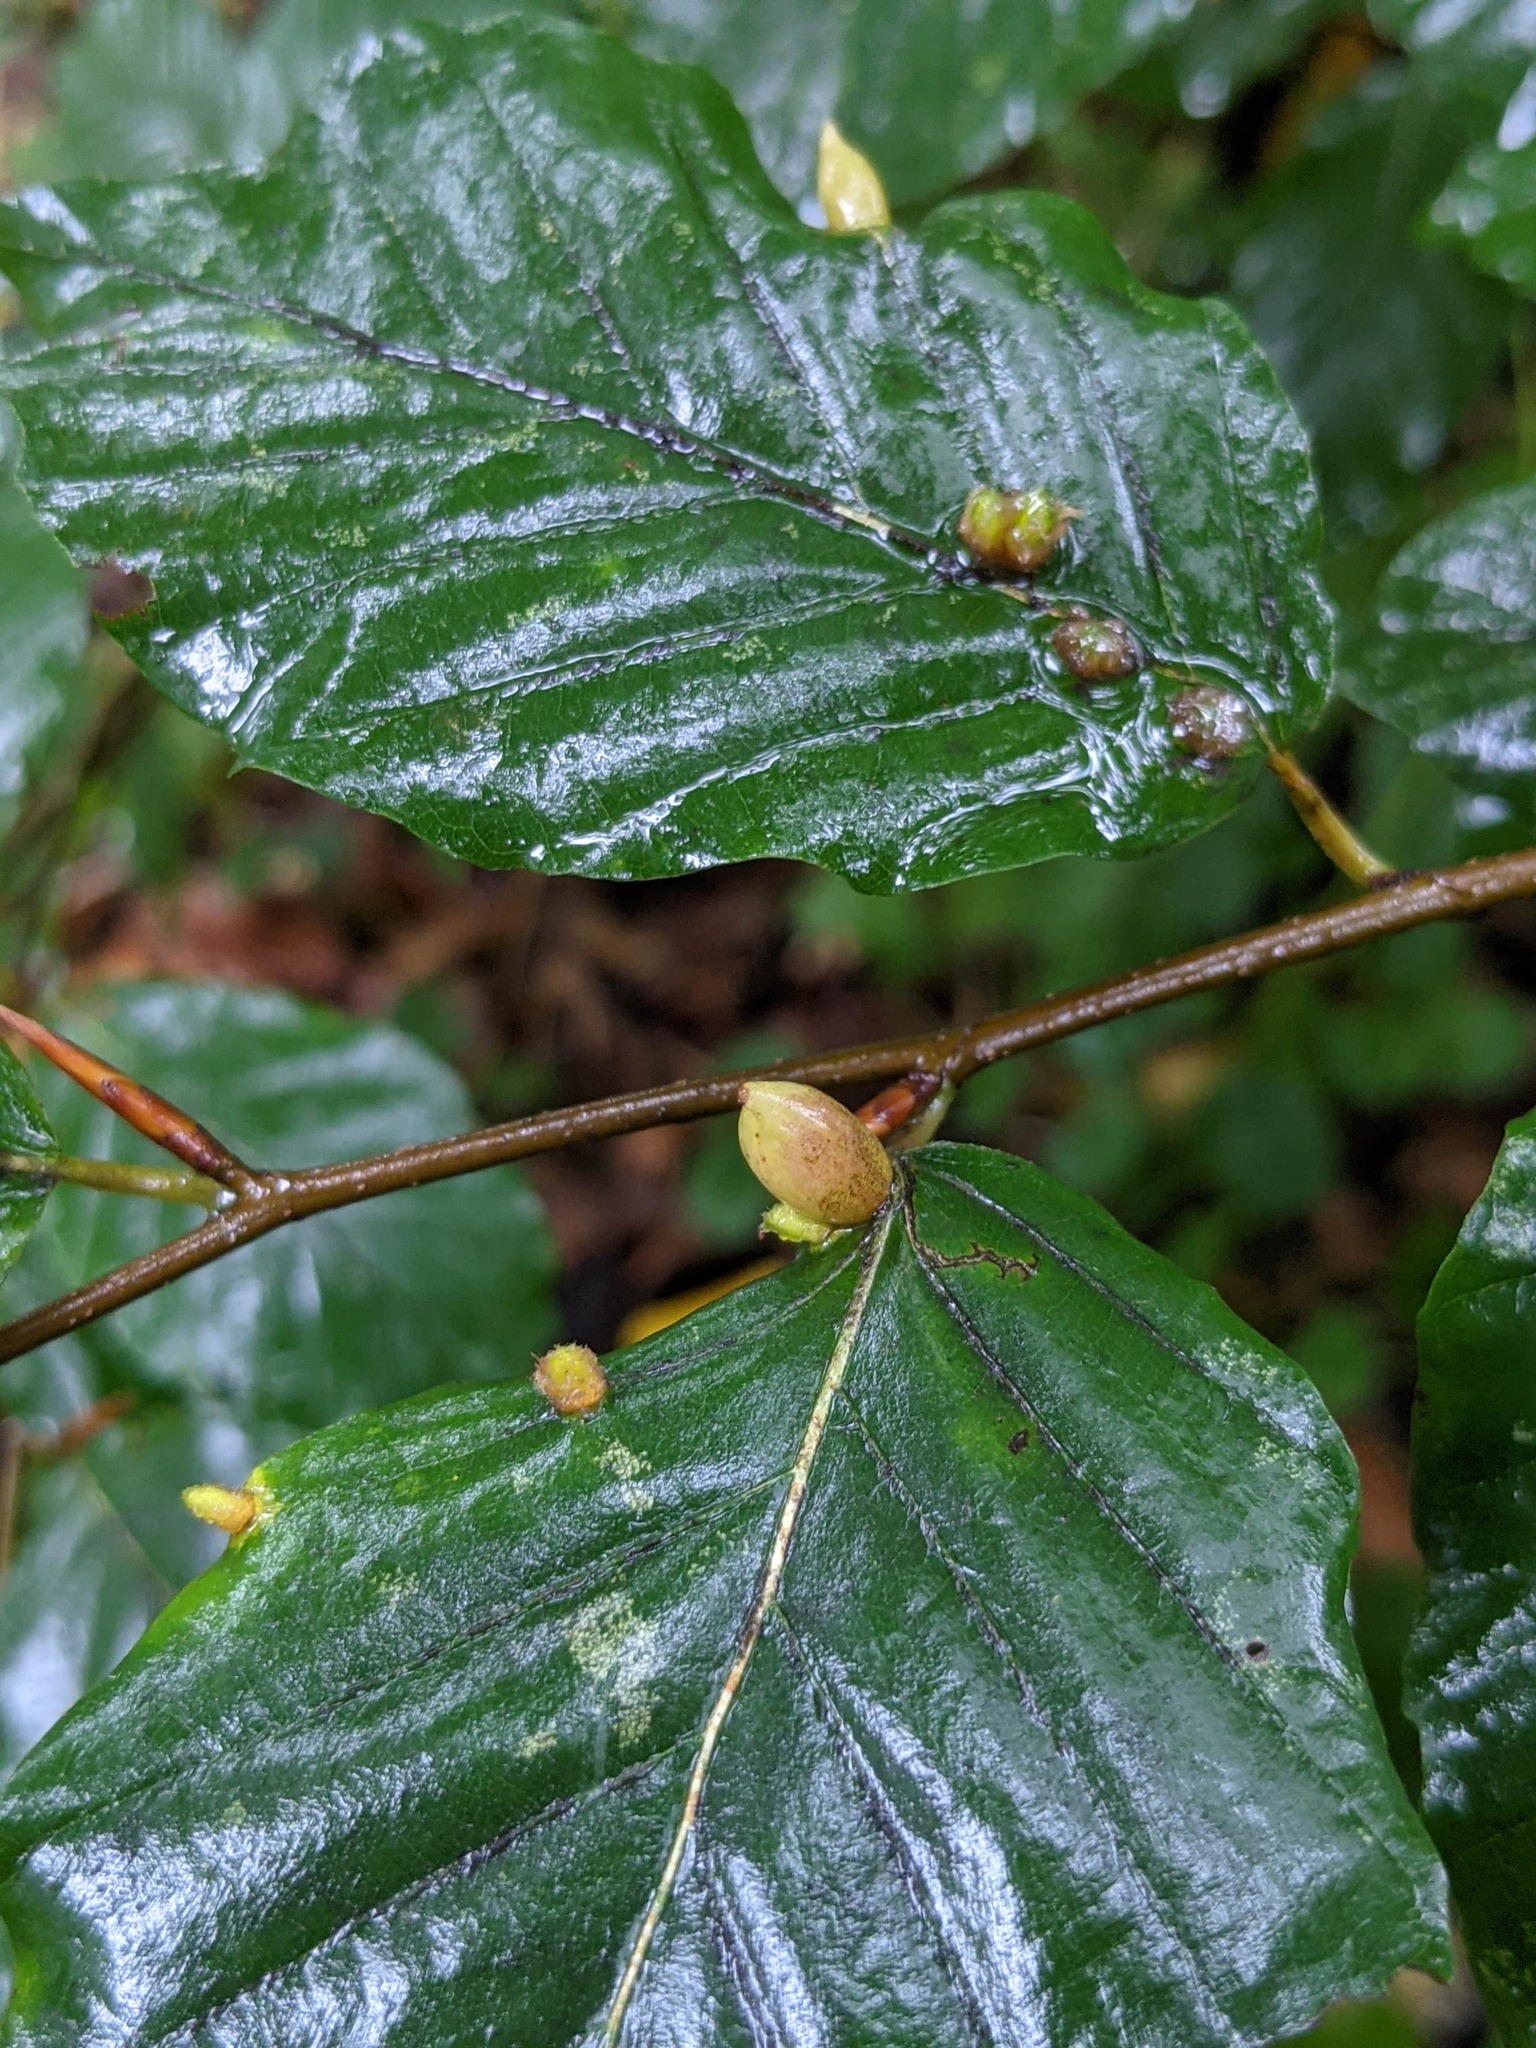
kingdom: Animalia
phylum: Arthropoda
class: Insecta
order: Diptera
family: Cecidomyiidae
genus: Mikiola
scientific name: Mikiola fagi
